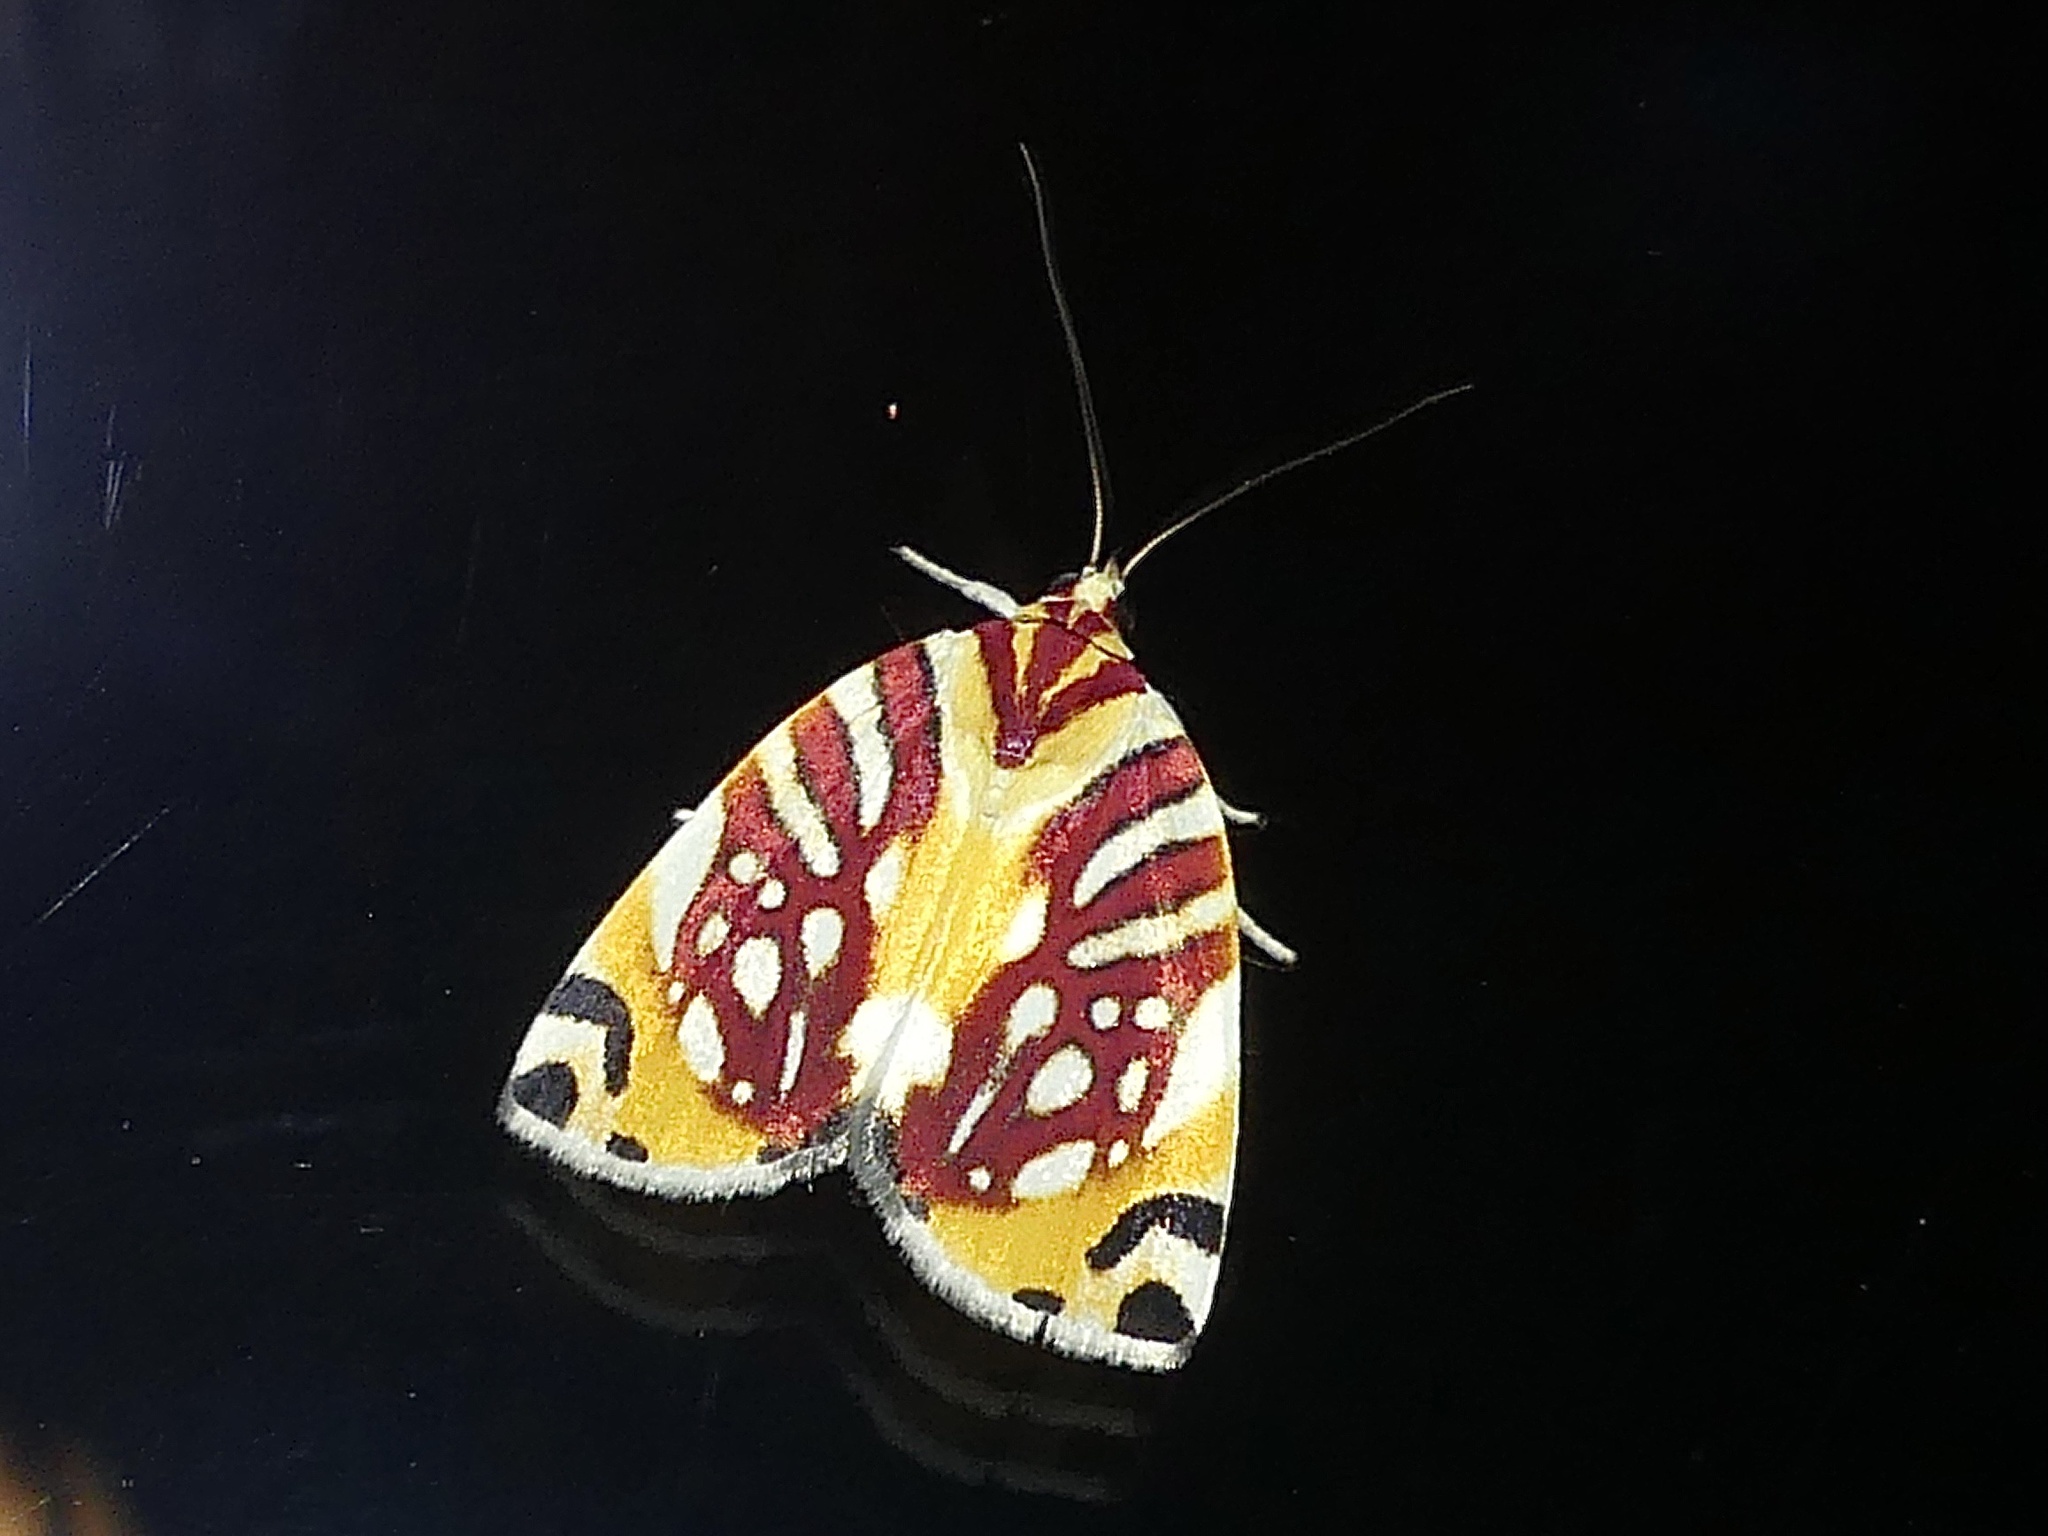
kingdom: Animalia
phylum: Arthropoda
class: Insecta
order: Lepidoptera
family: Nolidae
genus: Sinna
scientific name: Sinna calospila
